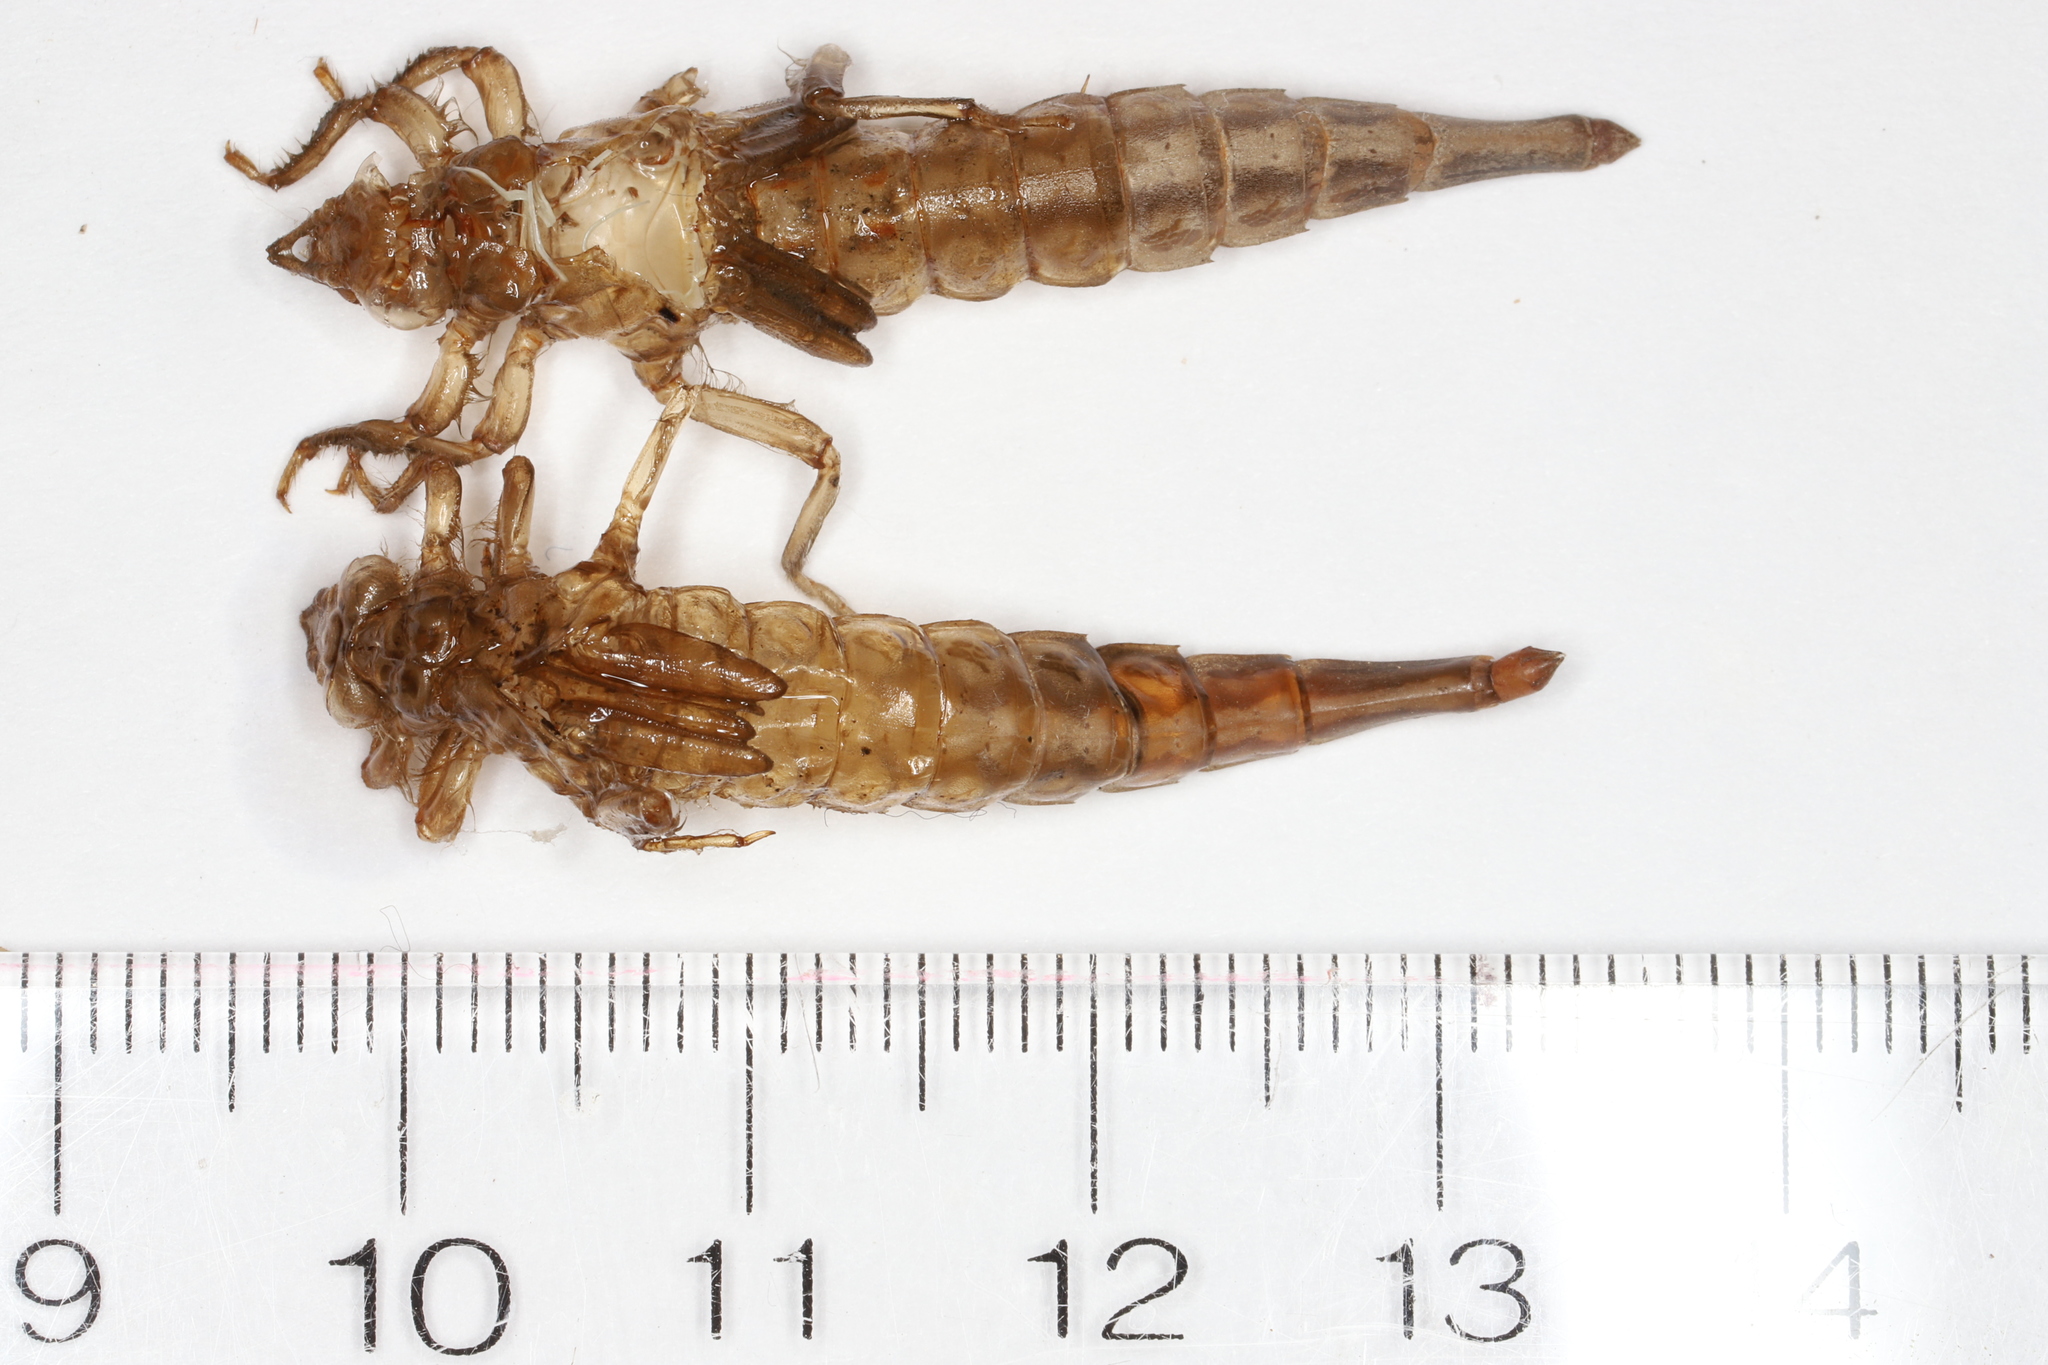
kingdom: Animalia
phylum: Arthropoda
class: Insecta
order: Odonata
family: Gomphidae
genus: Stylurus
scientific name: Stylurus spiniceps
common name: Arrow clubtail
